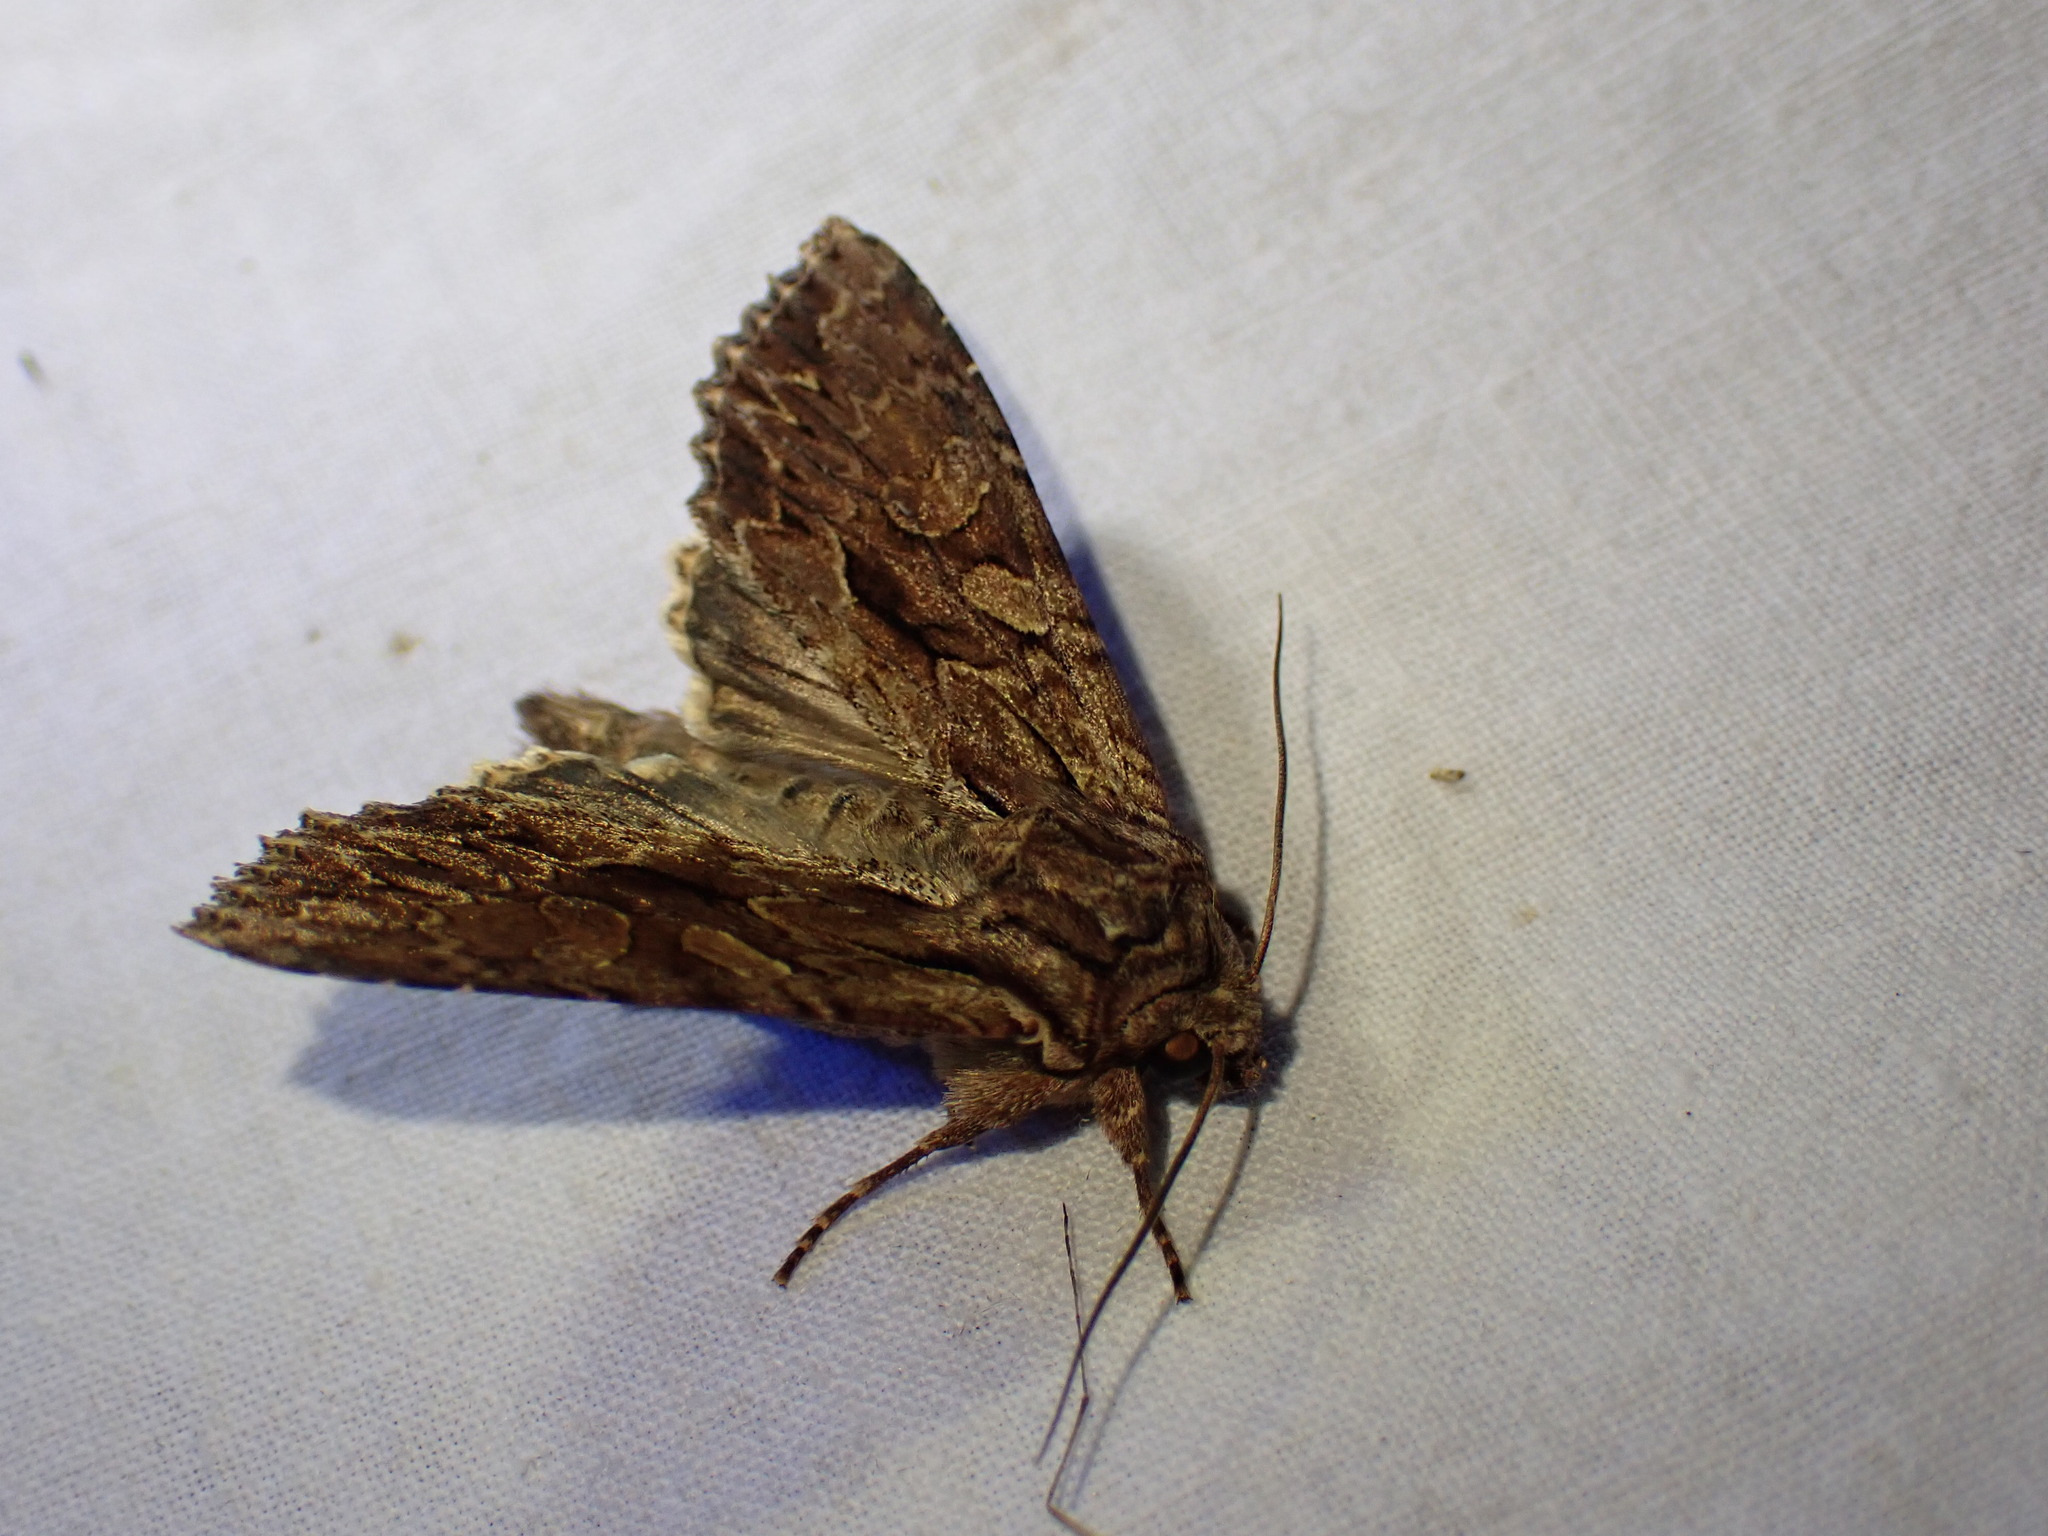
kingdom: Animalia
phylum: Arthropoda
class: Insecta
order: Lepidoptera
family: Noctuidae
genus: Apamea
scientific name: Apamea monoglypha
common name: Dark arches
